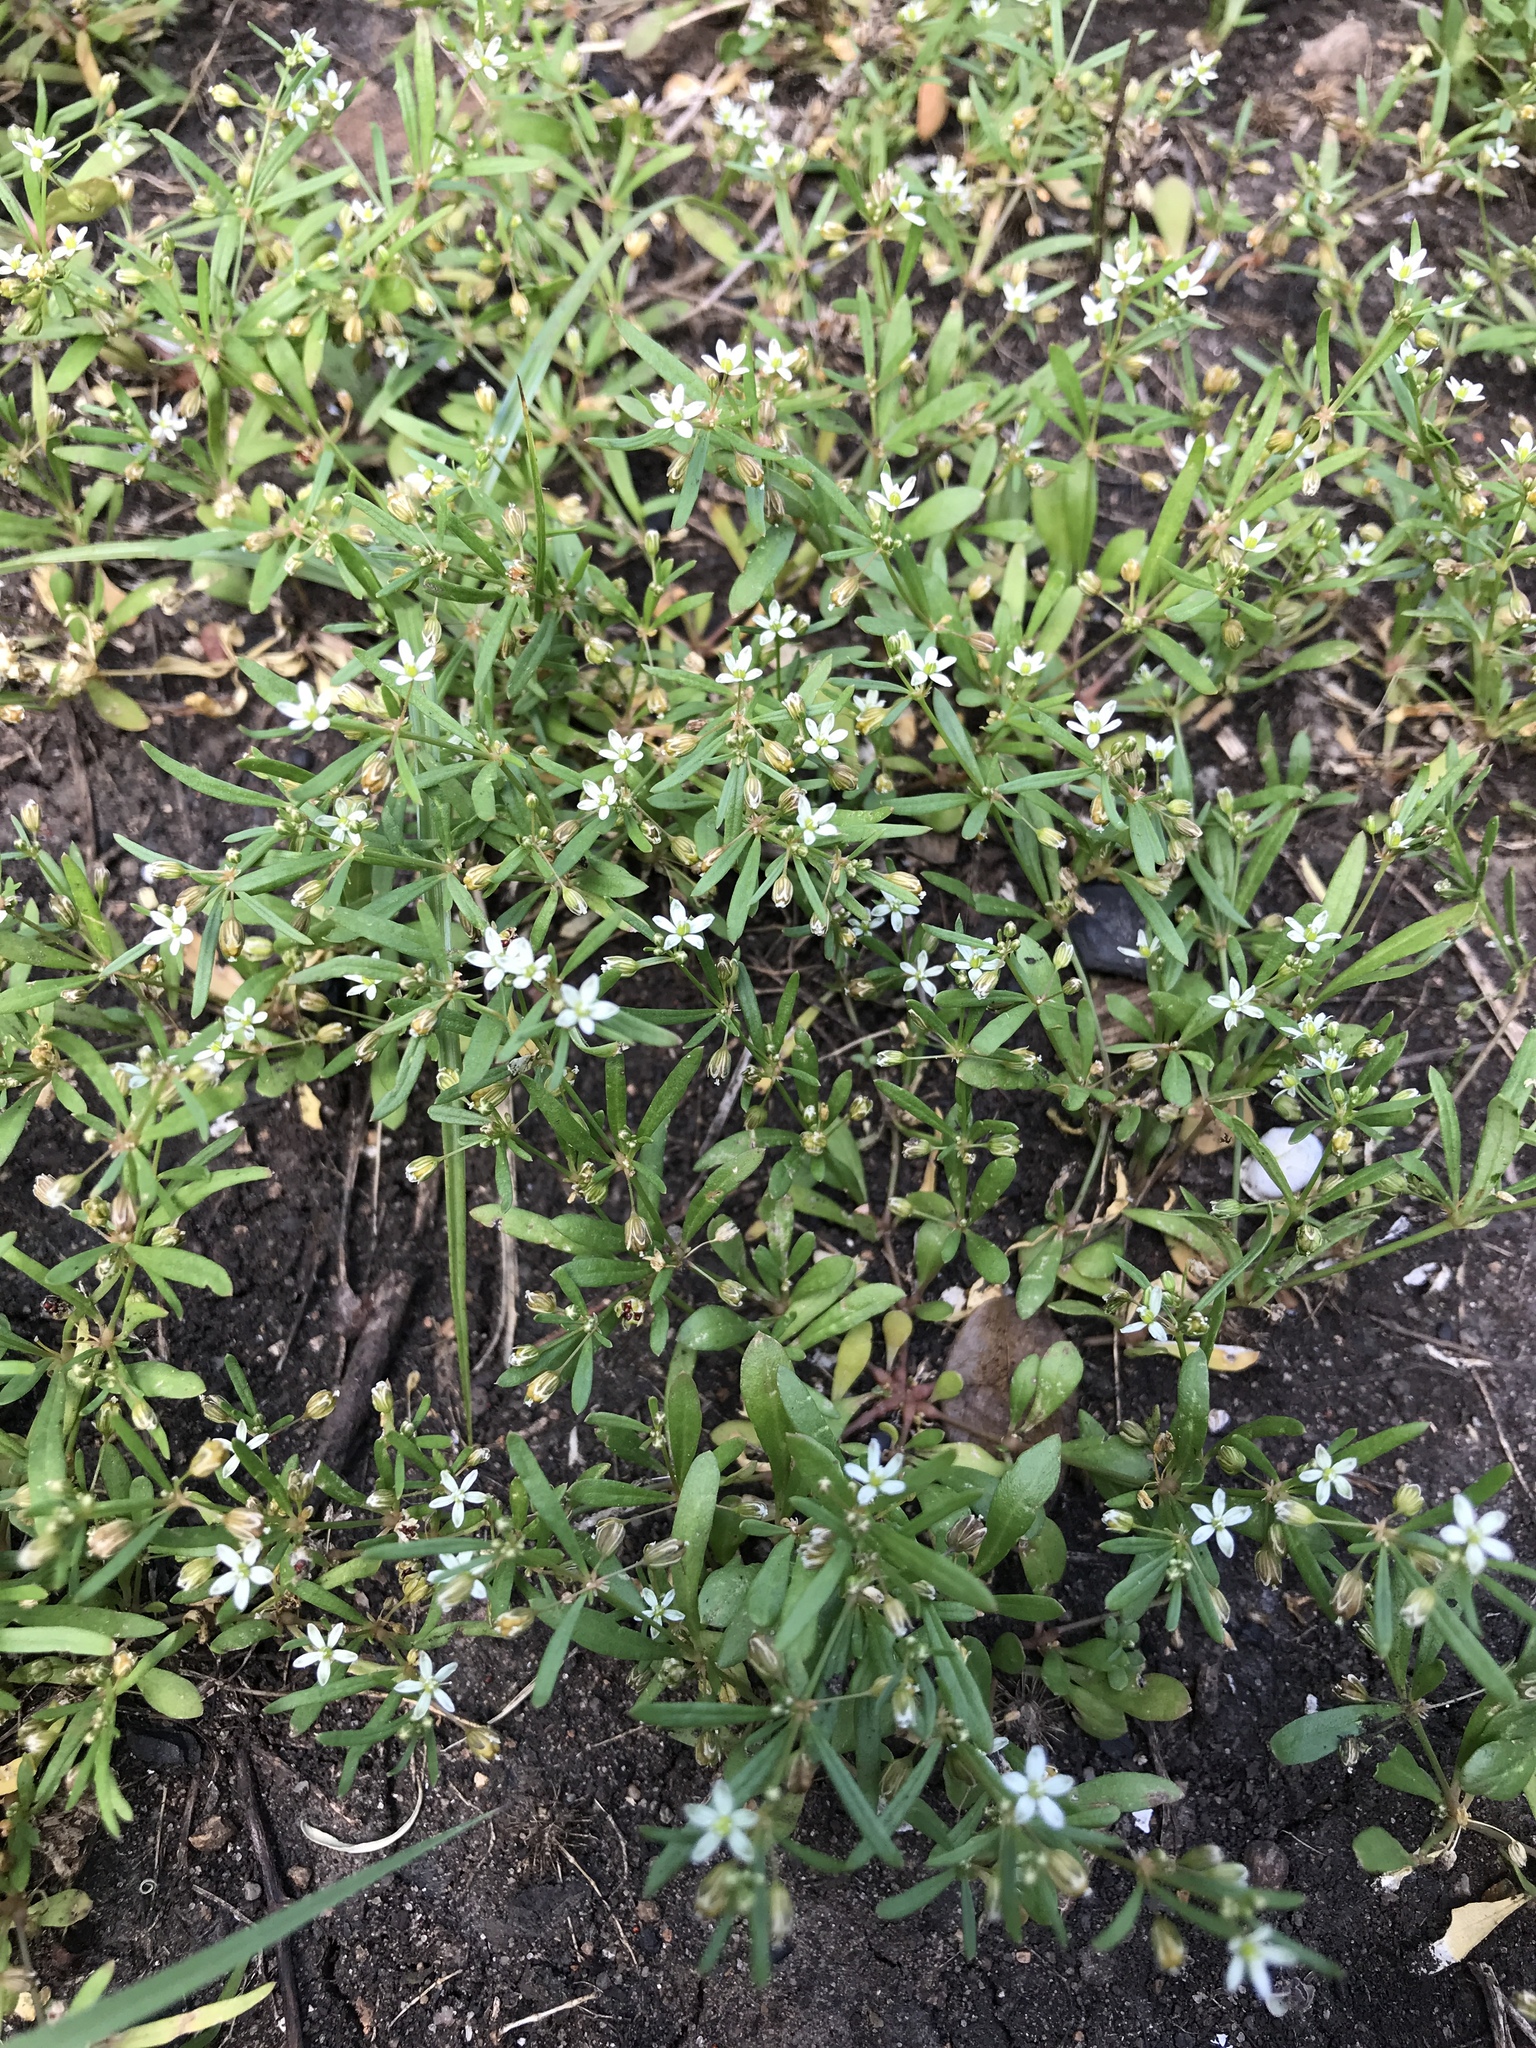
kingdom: Plantae
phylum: Tracheophyta
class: Magnoliopsida
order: Caryophyllales
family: Molluginaceae
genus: Mollugo
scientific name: Mollugo verticillata
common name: Green carpetweed
